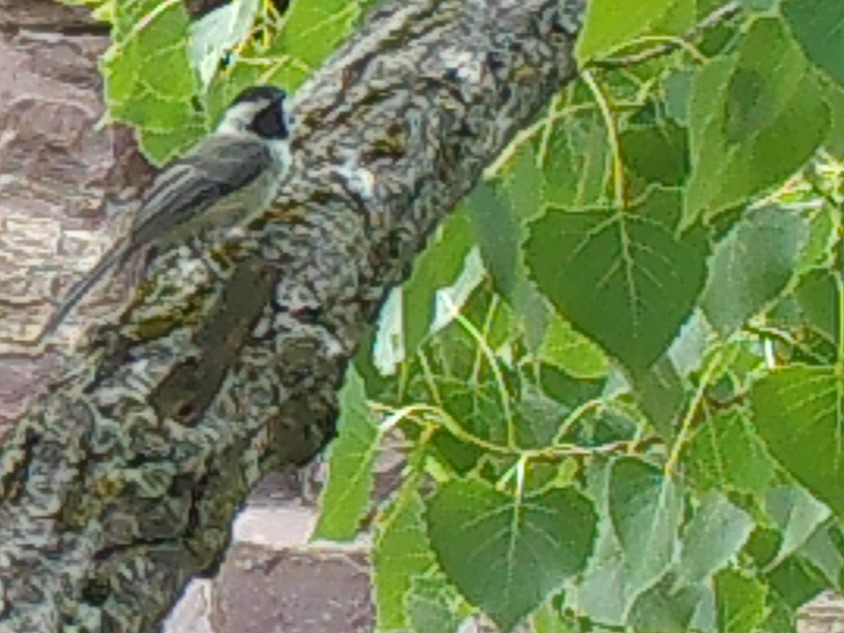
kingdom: Animalia
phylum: Chordata
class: Aves
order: Passeriformes
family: Paridae
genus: Poecile
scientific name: Poecile atricapillus
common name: Black-capped chickadee
